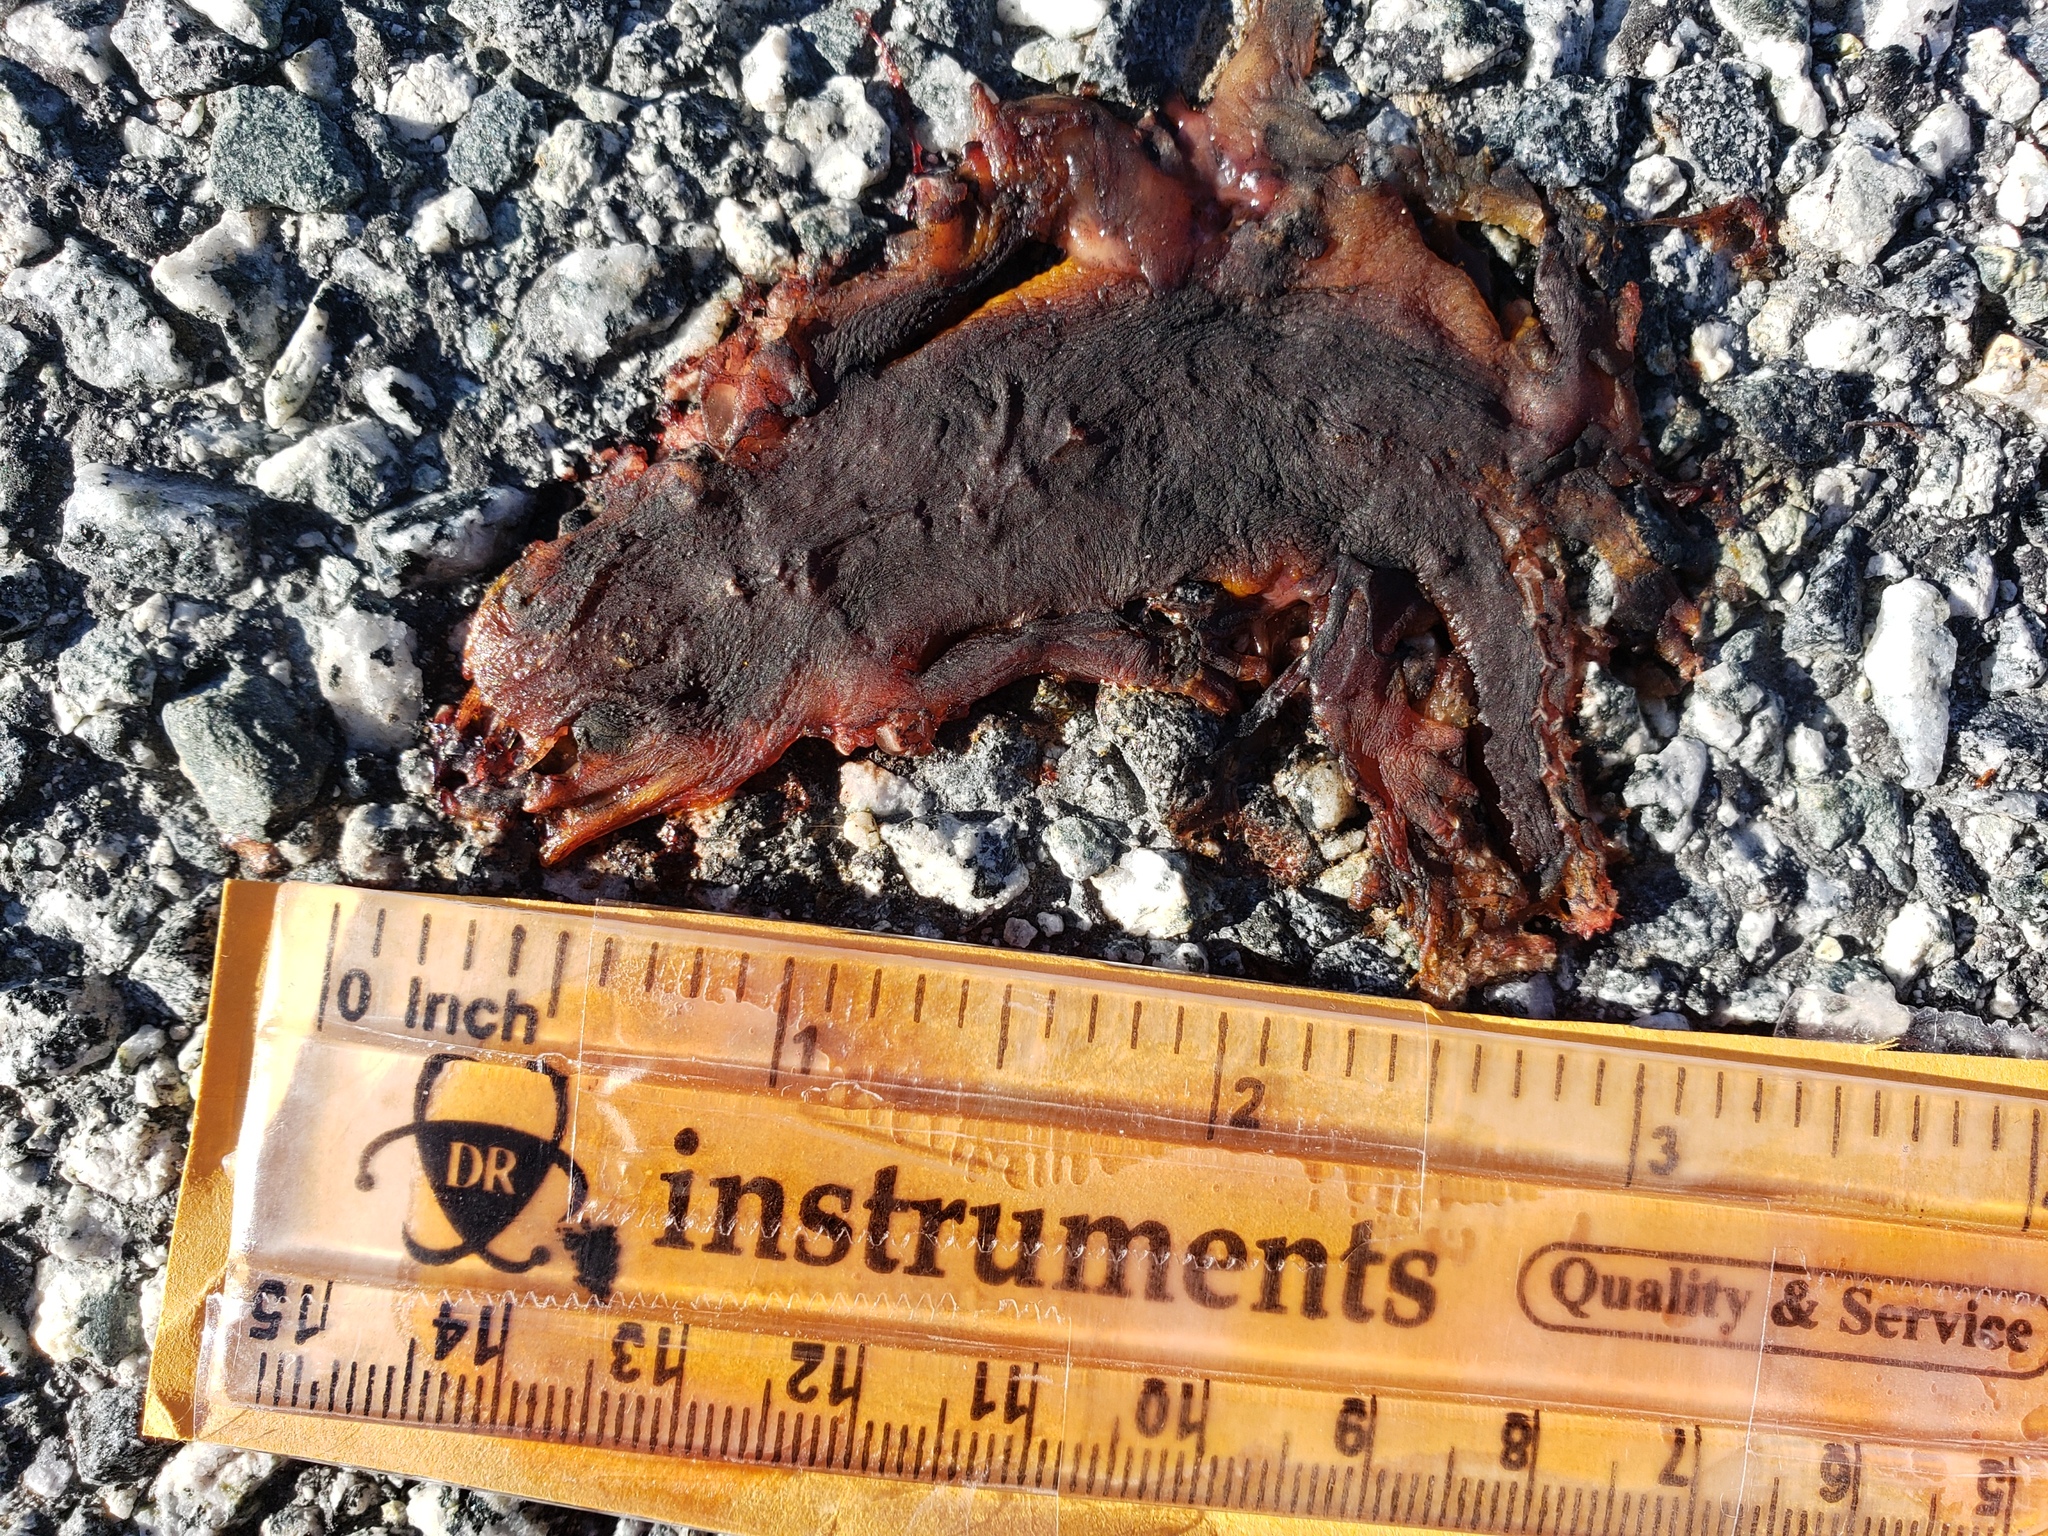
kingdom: Animalia
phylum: Chordata
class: Amphibia
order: Caudata
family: Salamandridae
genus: Taricha
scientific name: Taricha
